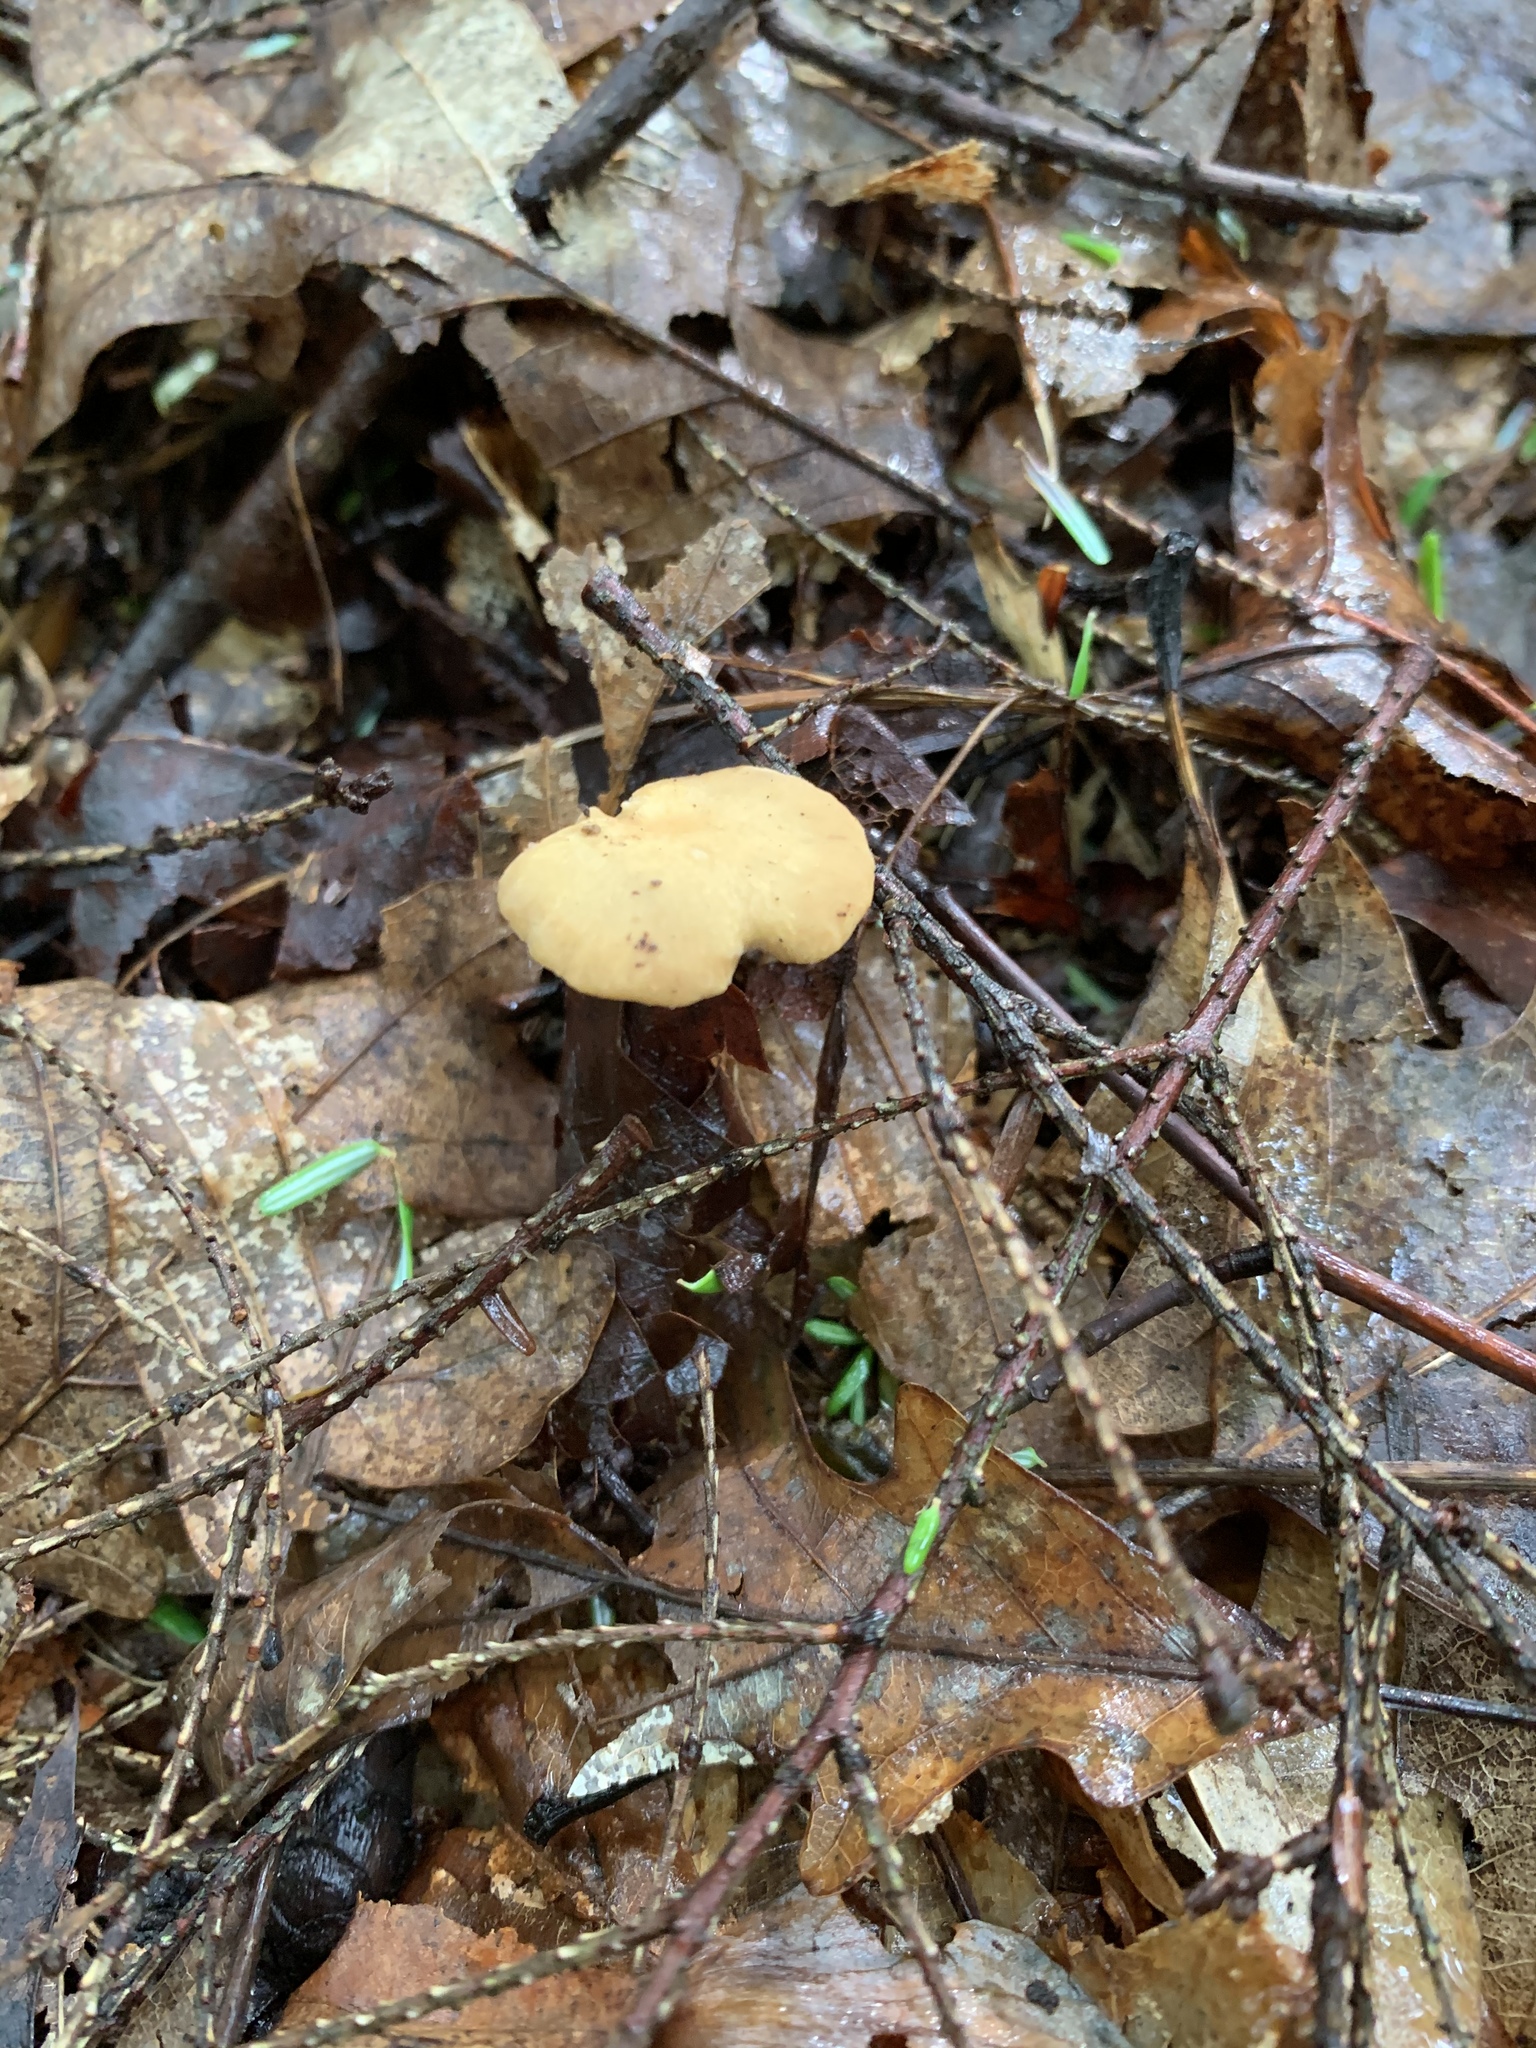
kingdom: Fungi
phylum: Basidiomycota
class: Agaricomycetes
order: Polyporales
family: Polyporaceae
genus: Cerioporus
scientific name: Cerioporus leptocephalus
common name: Blackfoot polypore
